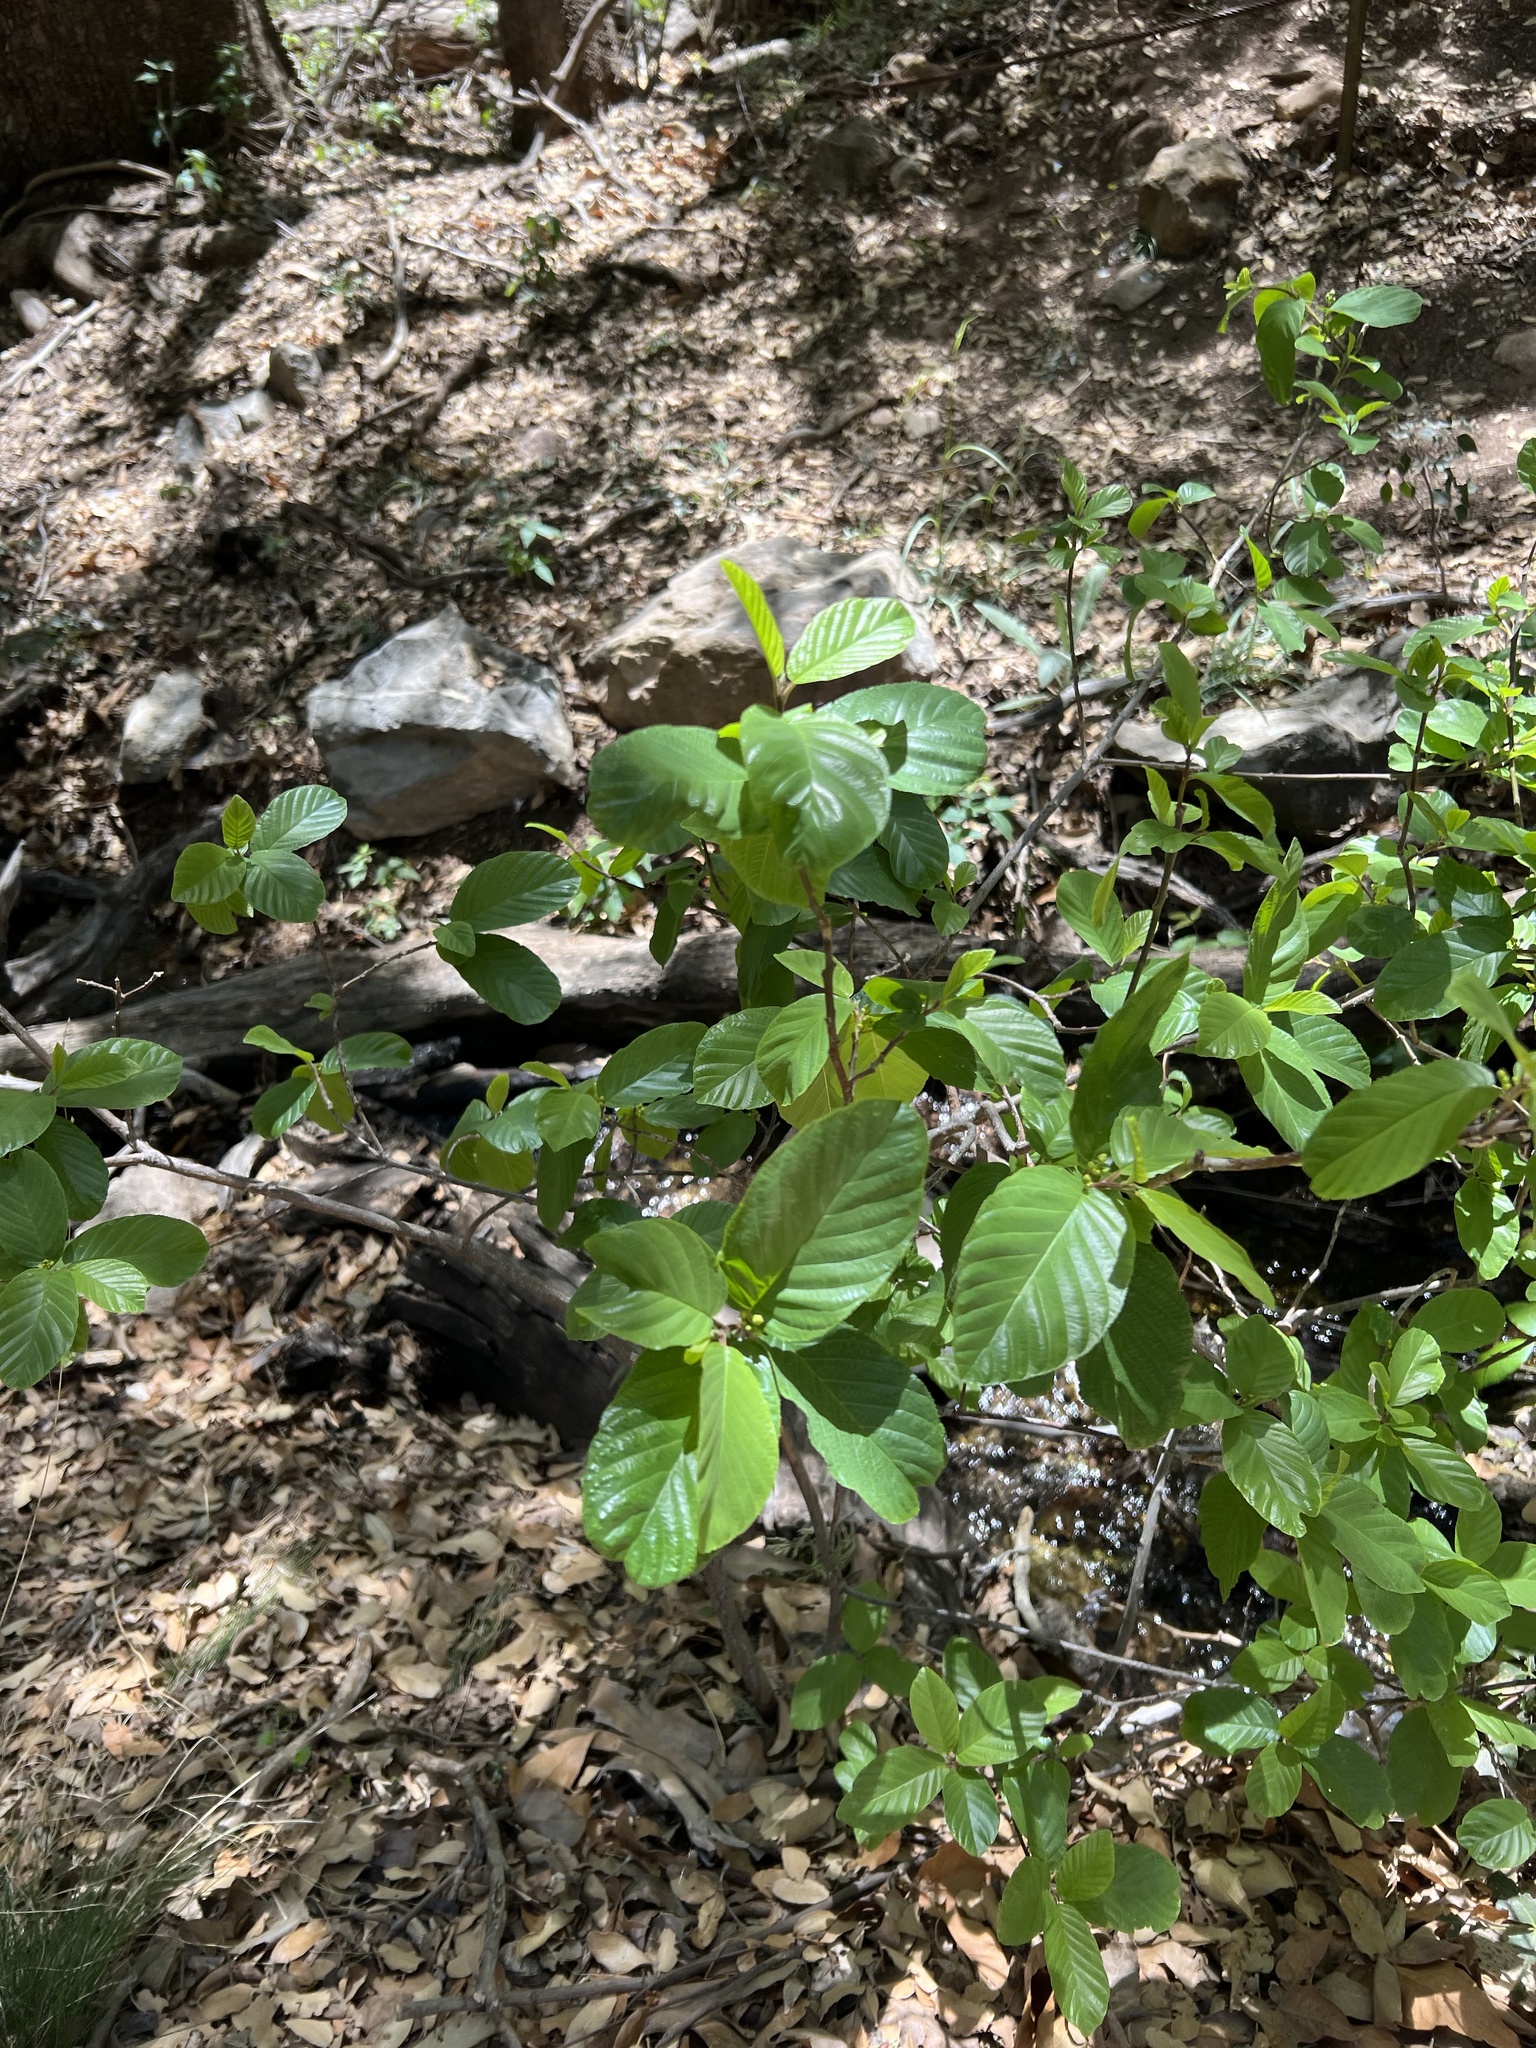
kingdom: Plantae
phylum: Tracheophyta
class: Magnoliopsida
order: Rosales
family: Rhamnaceae
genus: Frangula
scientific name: Frangula betulifolia
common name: Birch-leaf buckthorn
